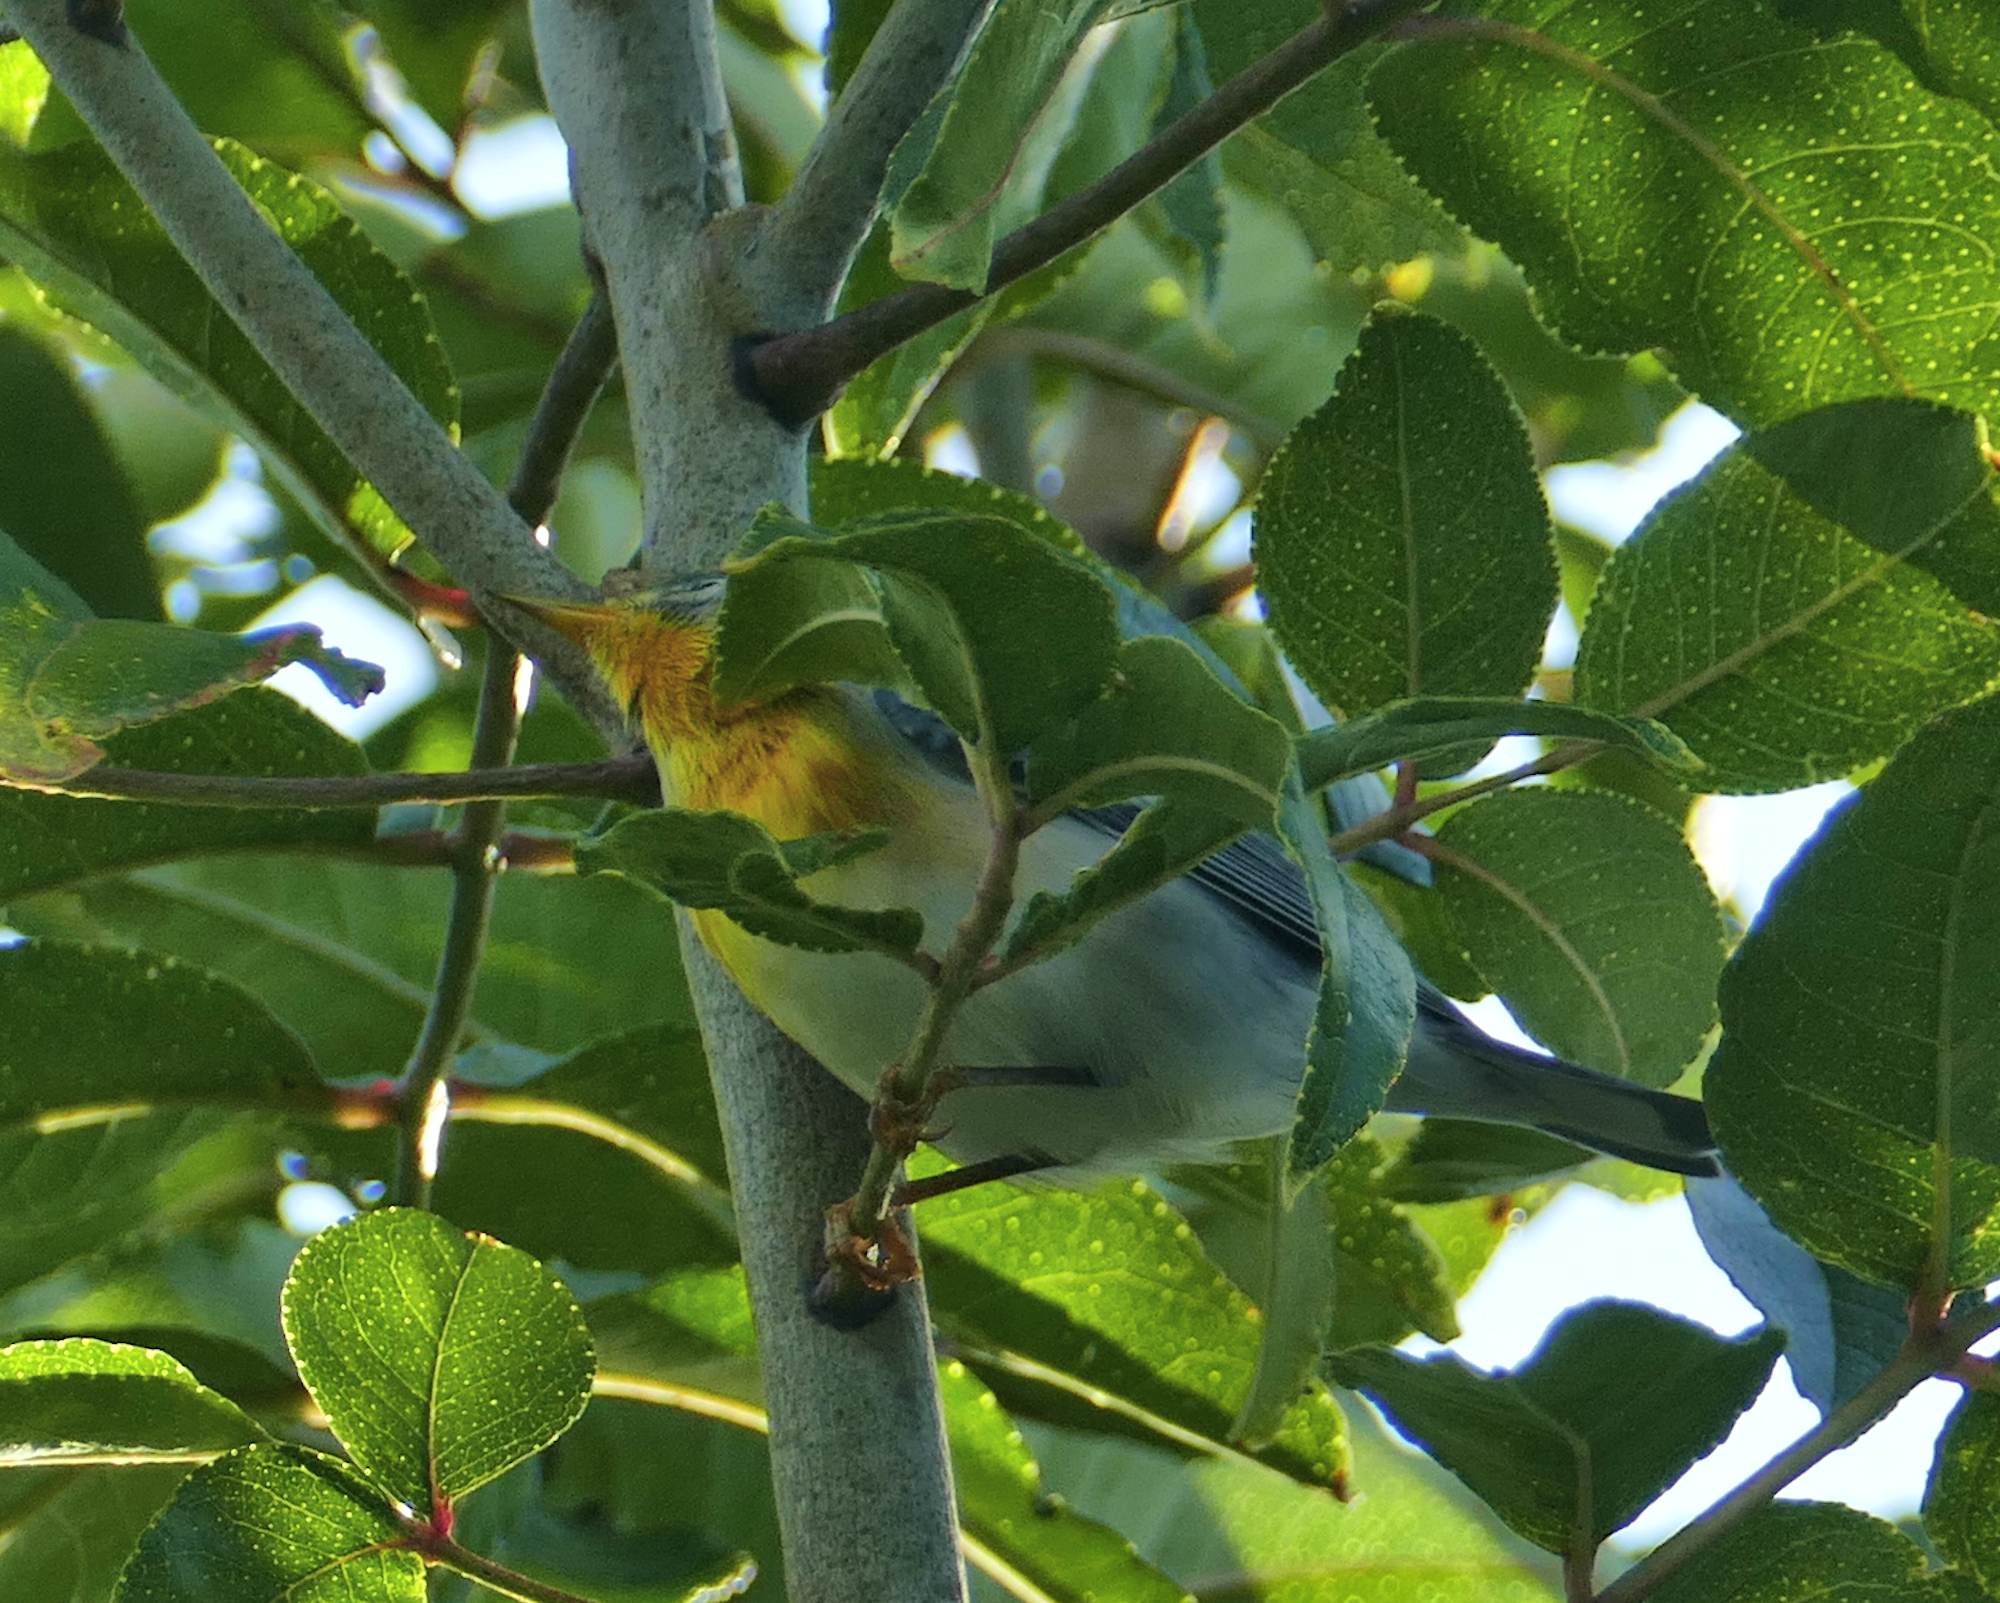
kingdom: Animalia
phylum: Chordata
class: Aves
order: Passeriformes
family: Parulidae
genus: Setophaga
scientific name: Setophaga americana
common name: Northern parula
